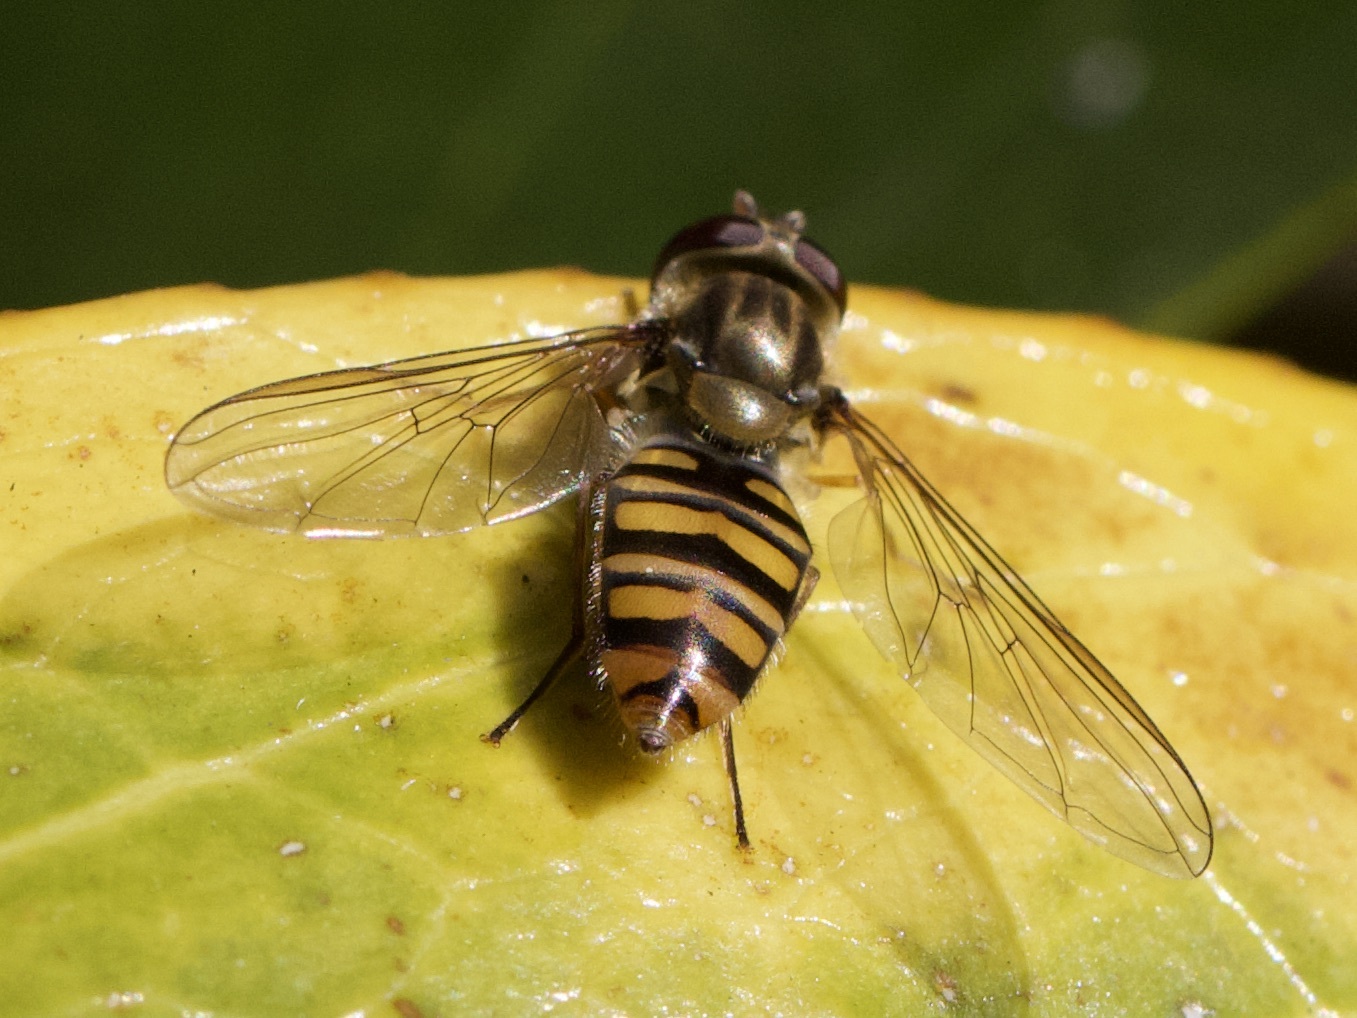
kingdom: Animalia
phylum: Arthropoda
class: Insecta
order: Diptera
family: Syrphidae
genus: Episyrphus
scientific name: Episyrphus balteatus
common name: Marmalade hoverfly
